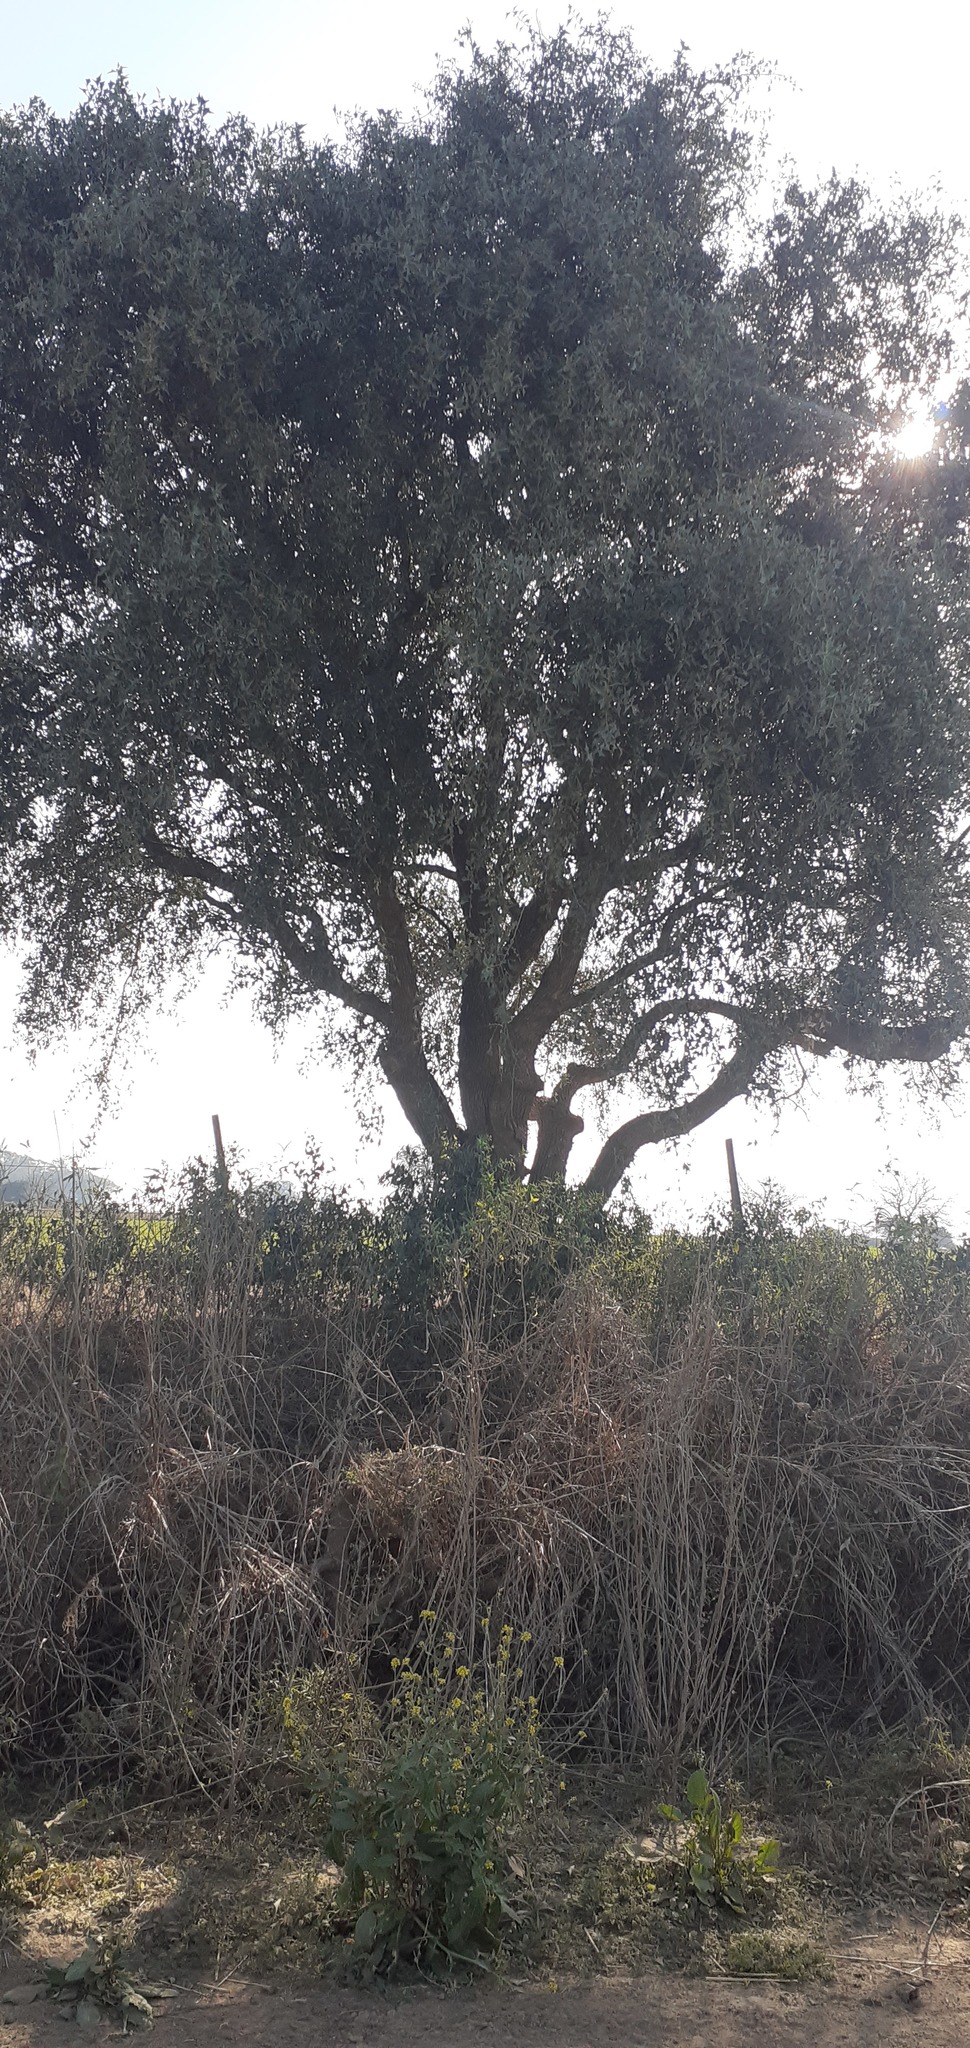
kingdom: Plantae
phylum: Tracheophyta
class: Magnoliopsida
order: Santalales
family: Cervantesiaceae
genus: Jodina
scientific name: Jodina rhombifolia
